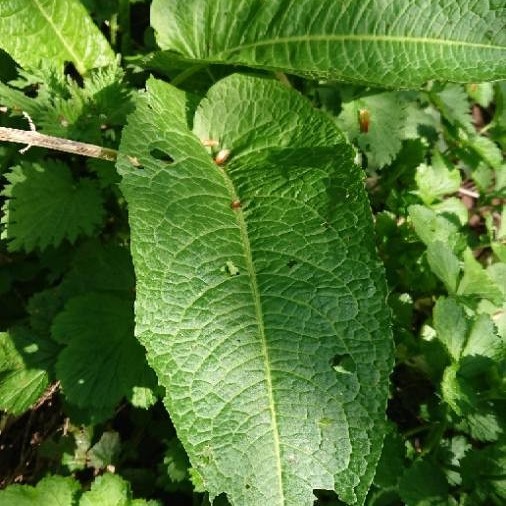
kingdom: Plantae
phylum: Tracheophyta
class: Magnoliopsida
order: Caryophyllales
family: Polygonaceae
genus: Rumex
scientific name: Rumex obtusifolius
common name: Bitter dock
